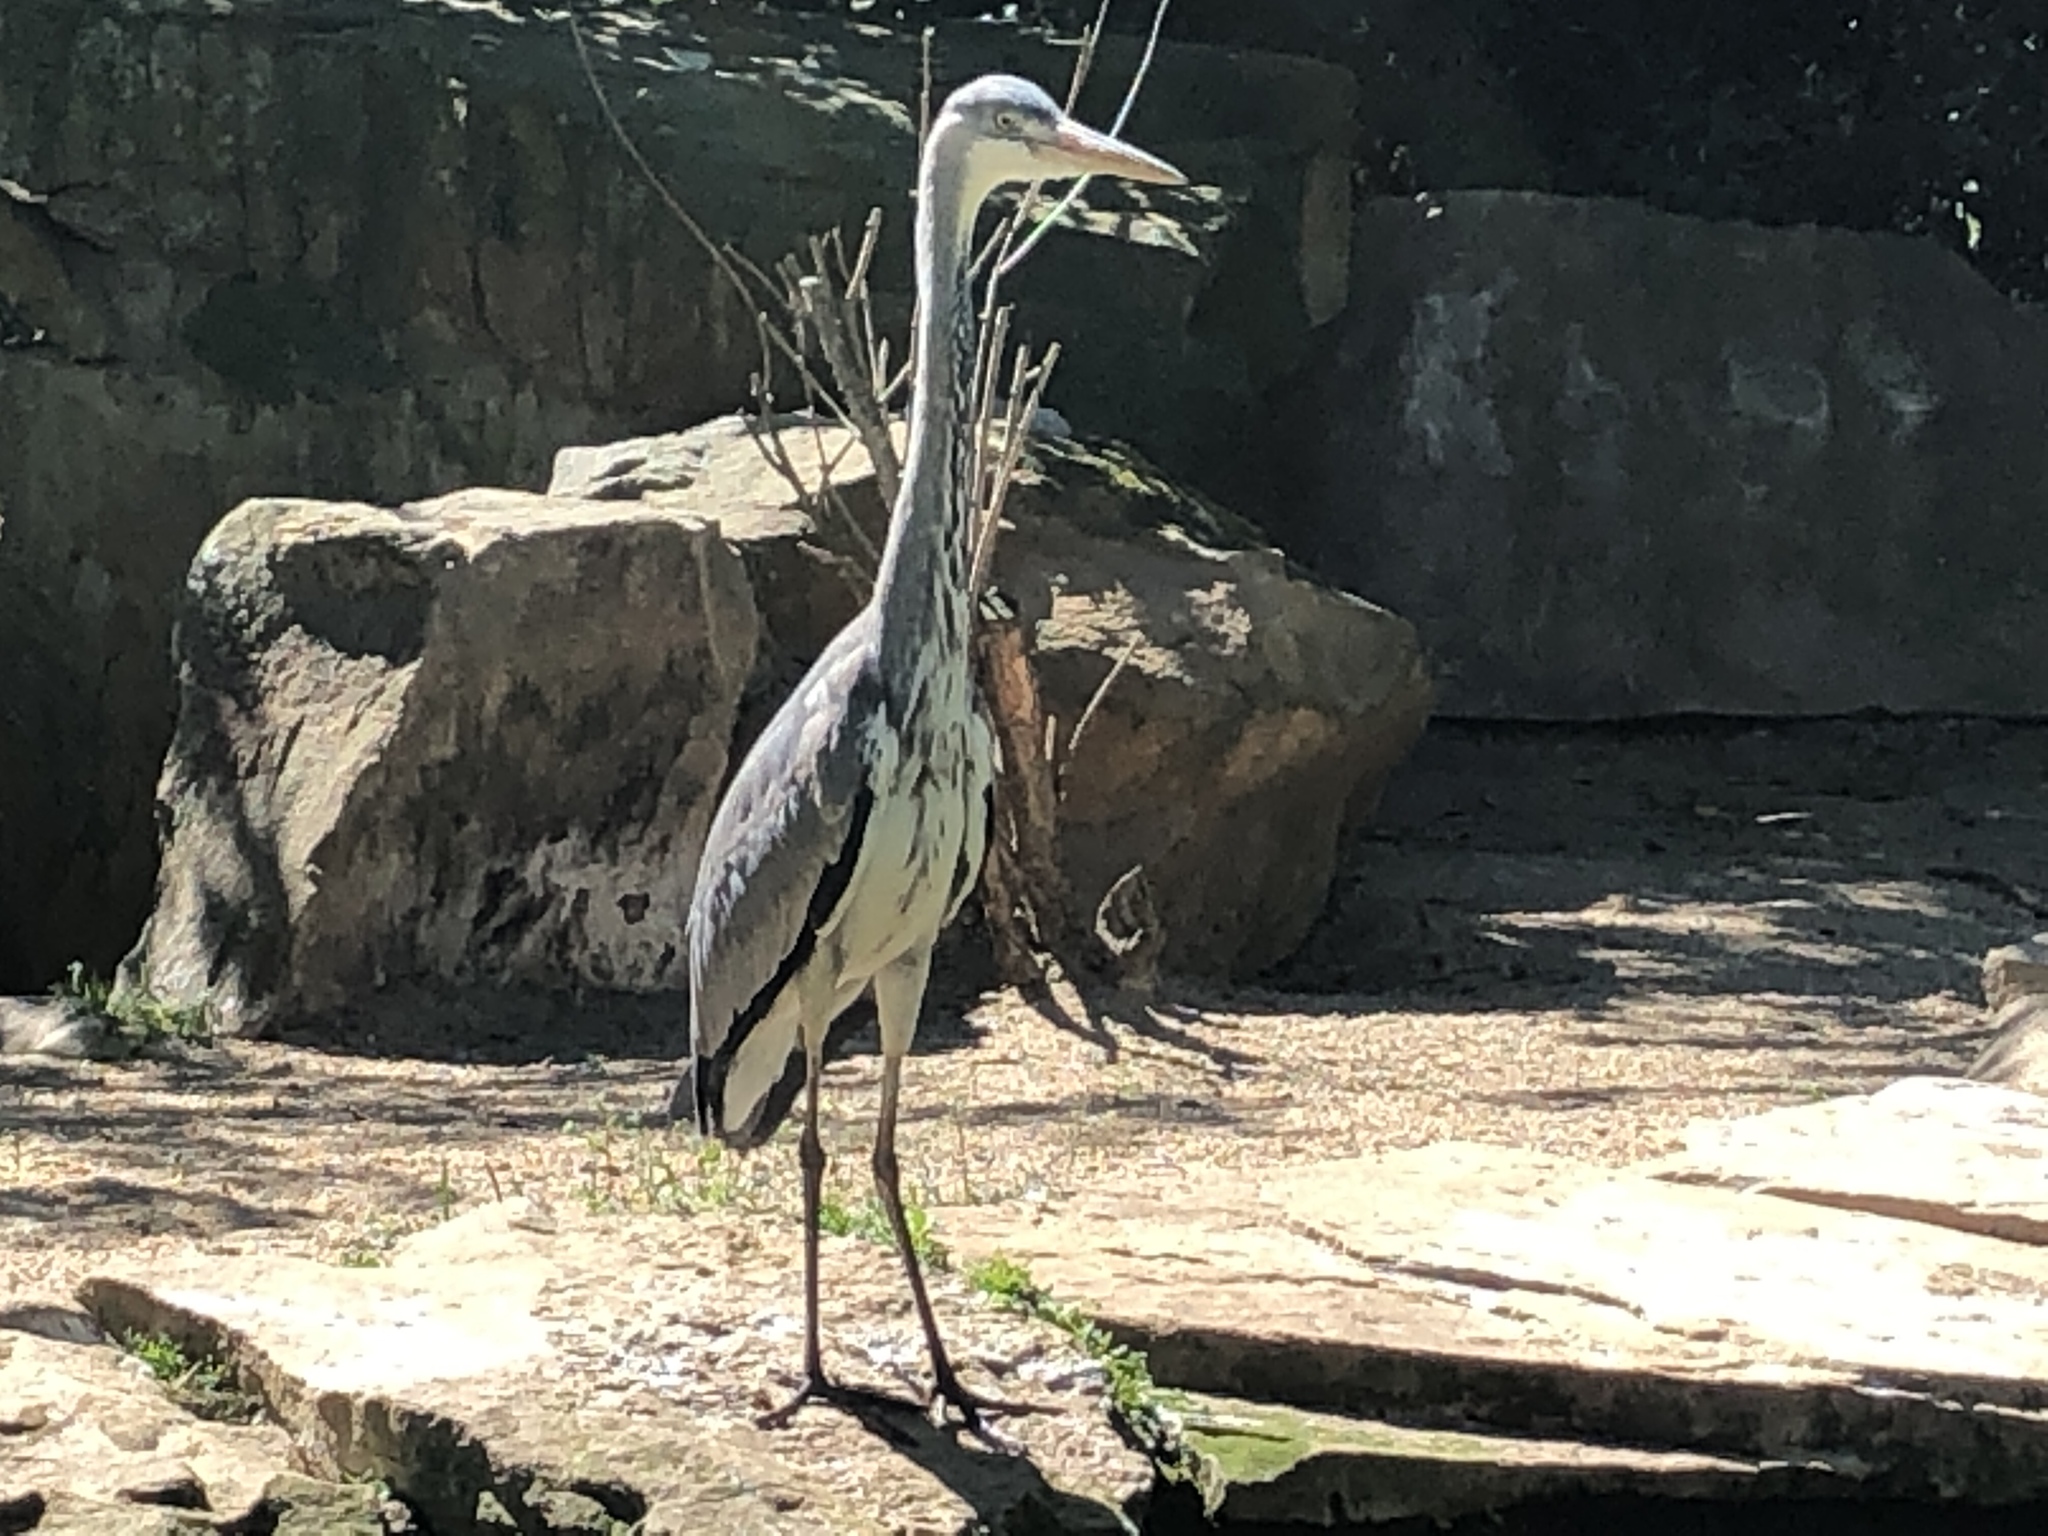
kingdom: Animalia
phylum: Chordata
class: Aves
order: Pelecaniformes
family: Ardeidae
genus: Ardea
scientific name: Ardea cinerea
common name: Grey heron
